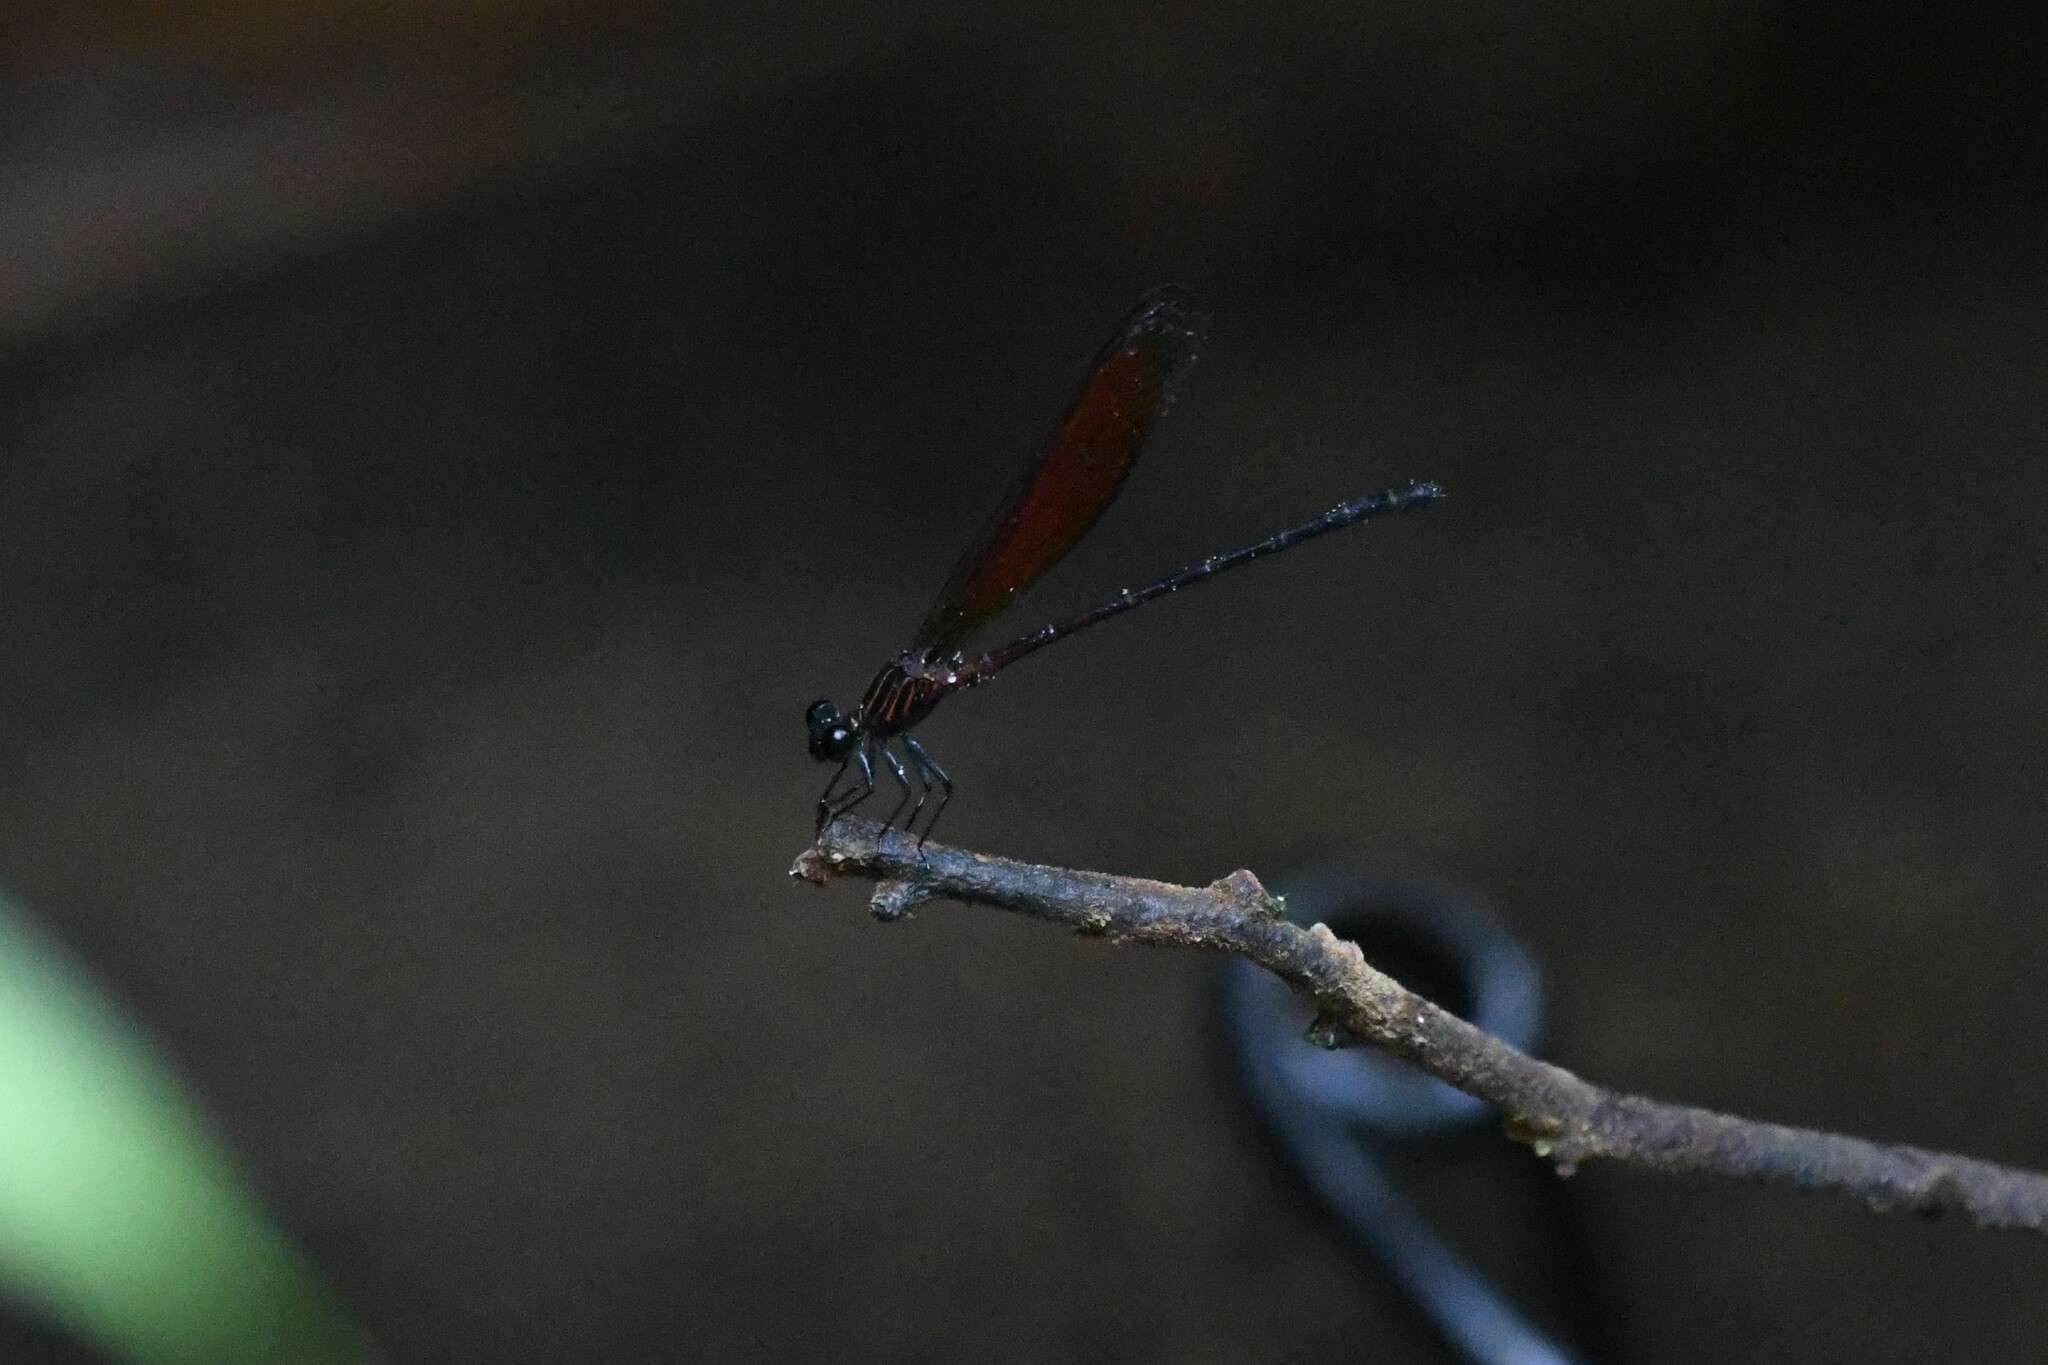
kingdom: Animalia
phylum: Arthropoda
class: Insecta
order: Odonata
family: Euphaeidae
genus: Euphaea
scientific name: Euphaea ochracea
